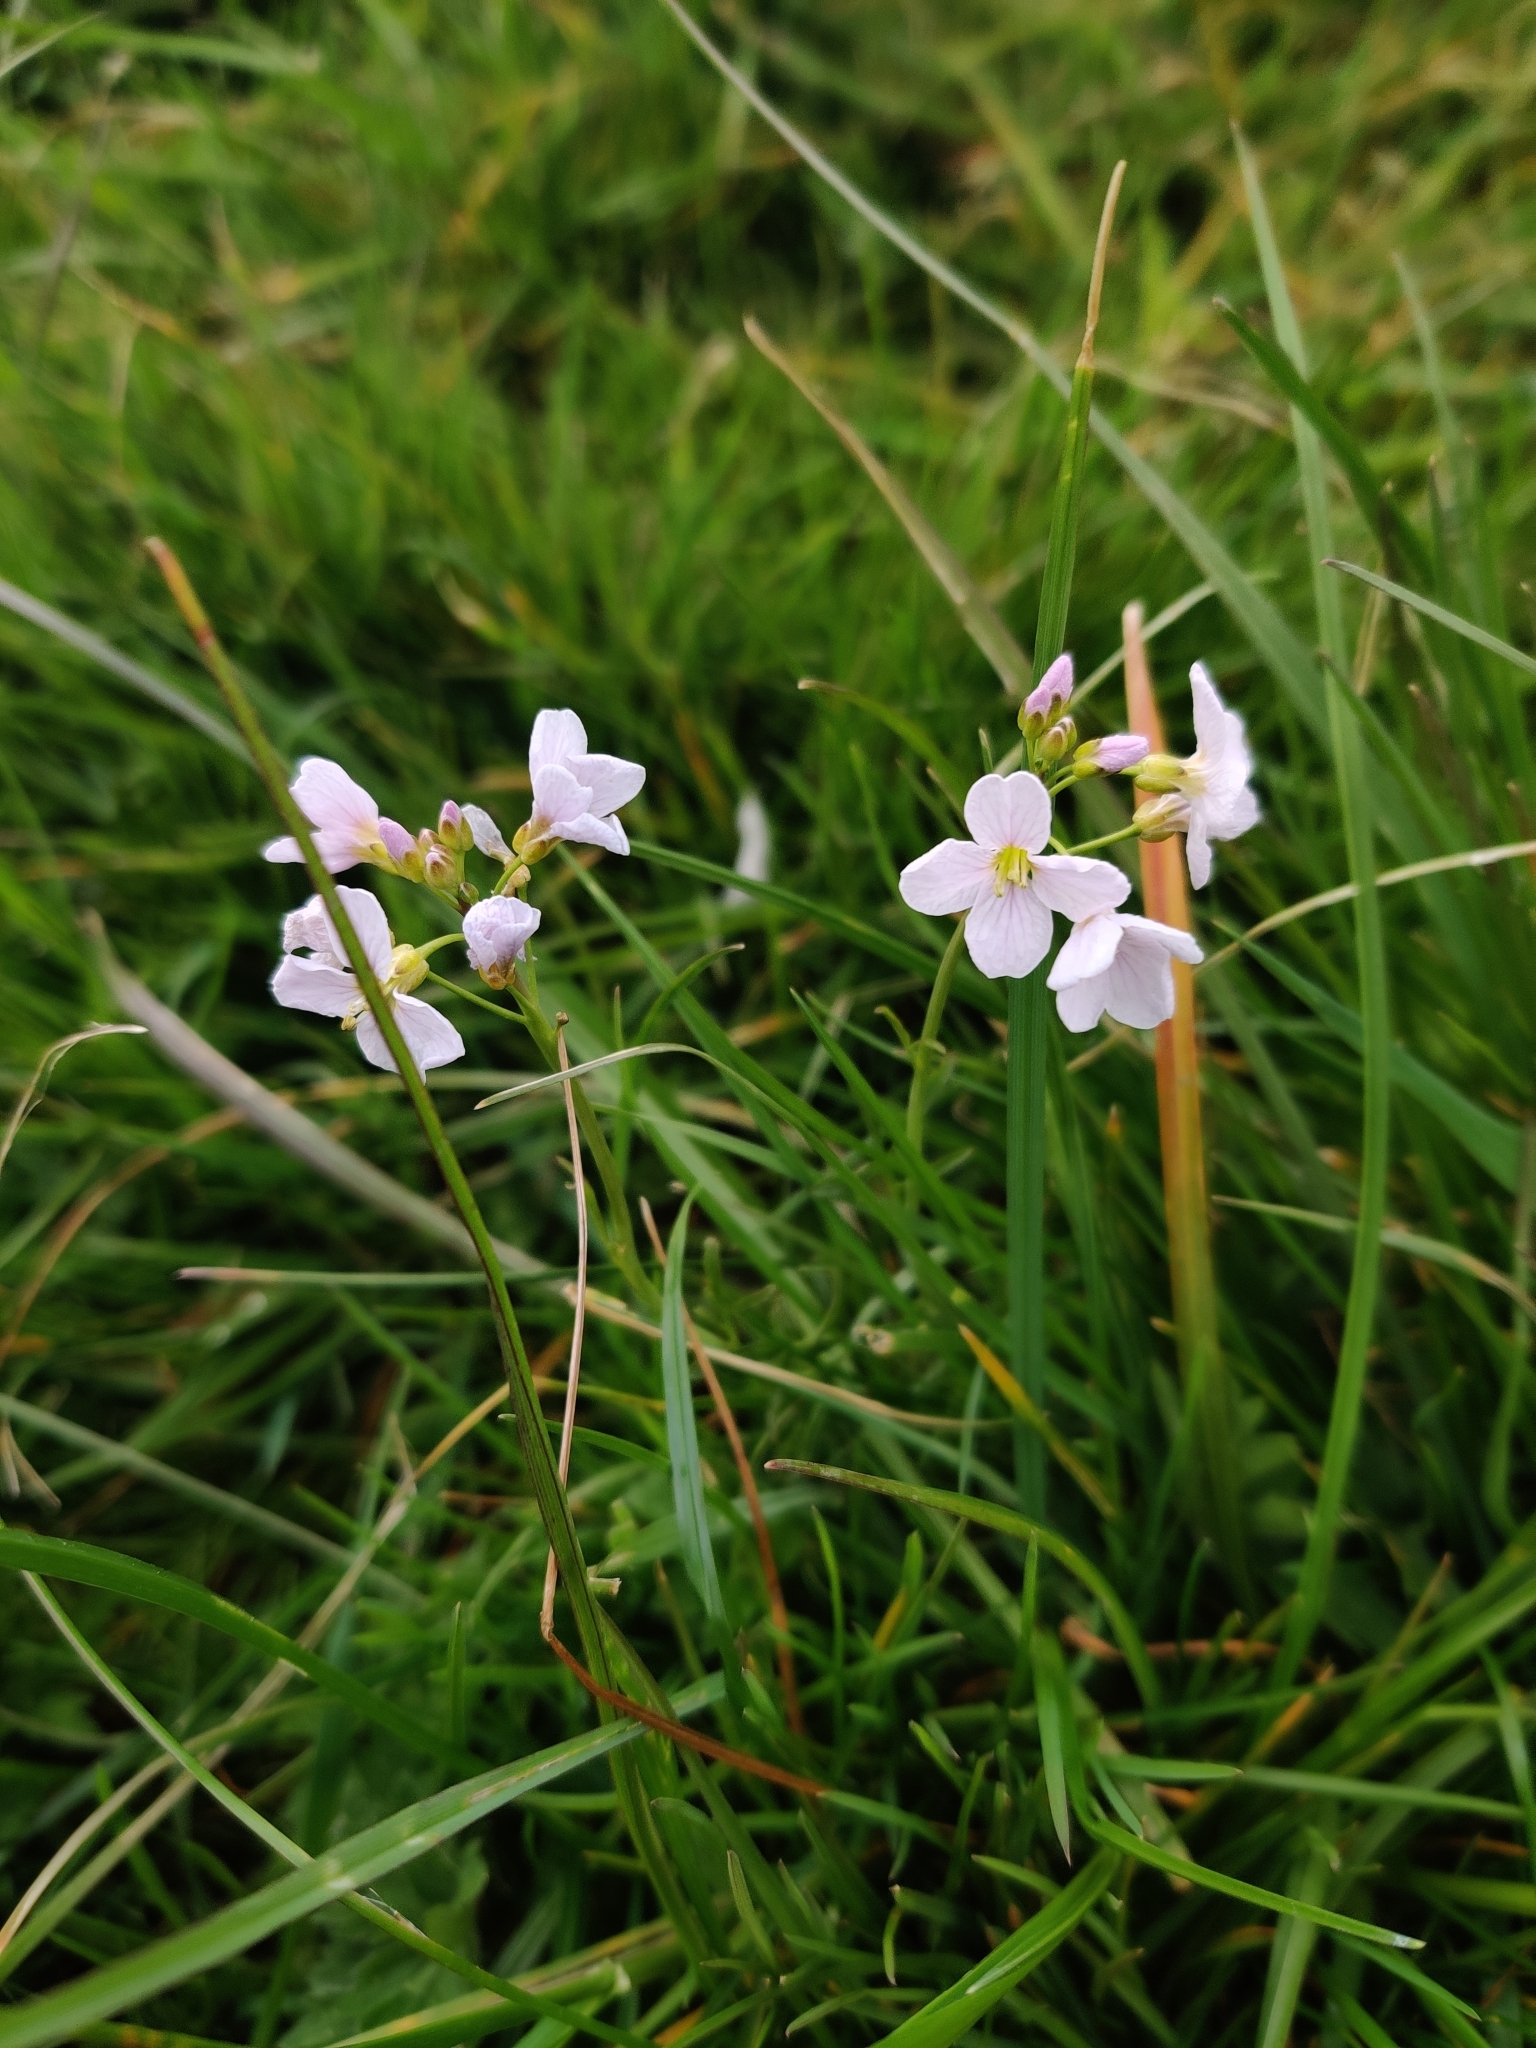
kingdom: Plantae
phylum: Tracheophyta
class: Magnoliopsida
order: Brassicales
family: Brassicaceae
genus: Cardamine
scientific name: Cardamine pratensis
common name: Cuckoo flower
